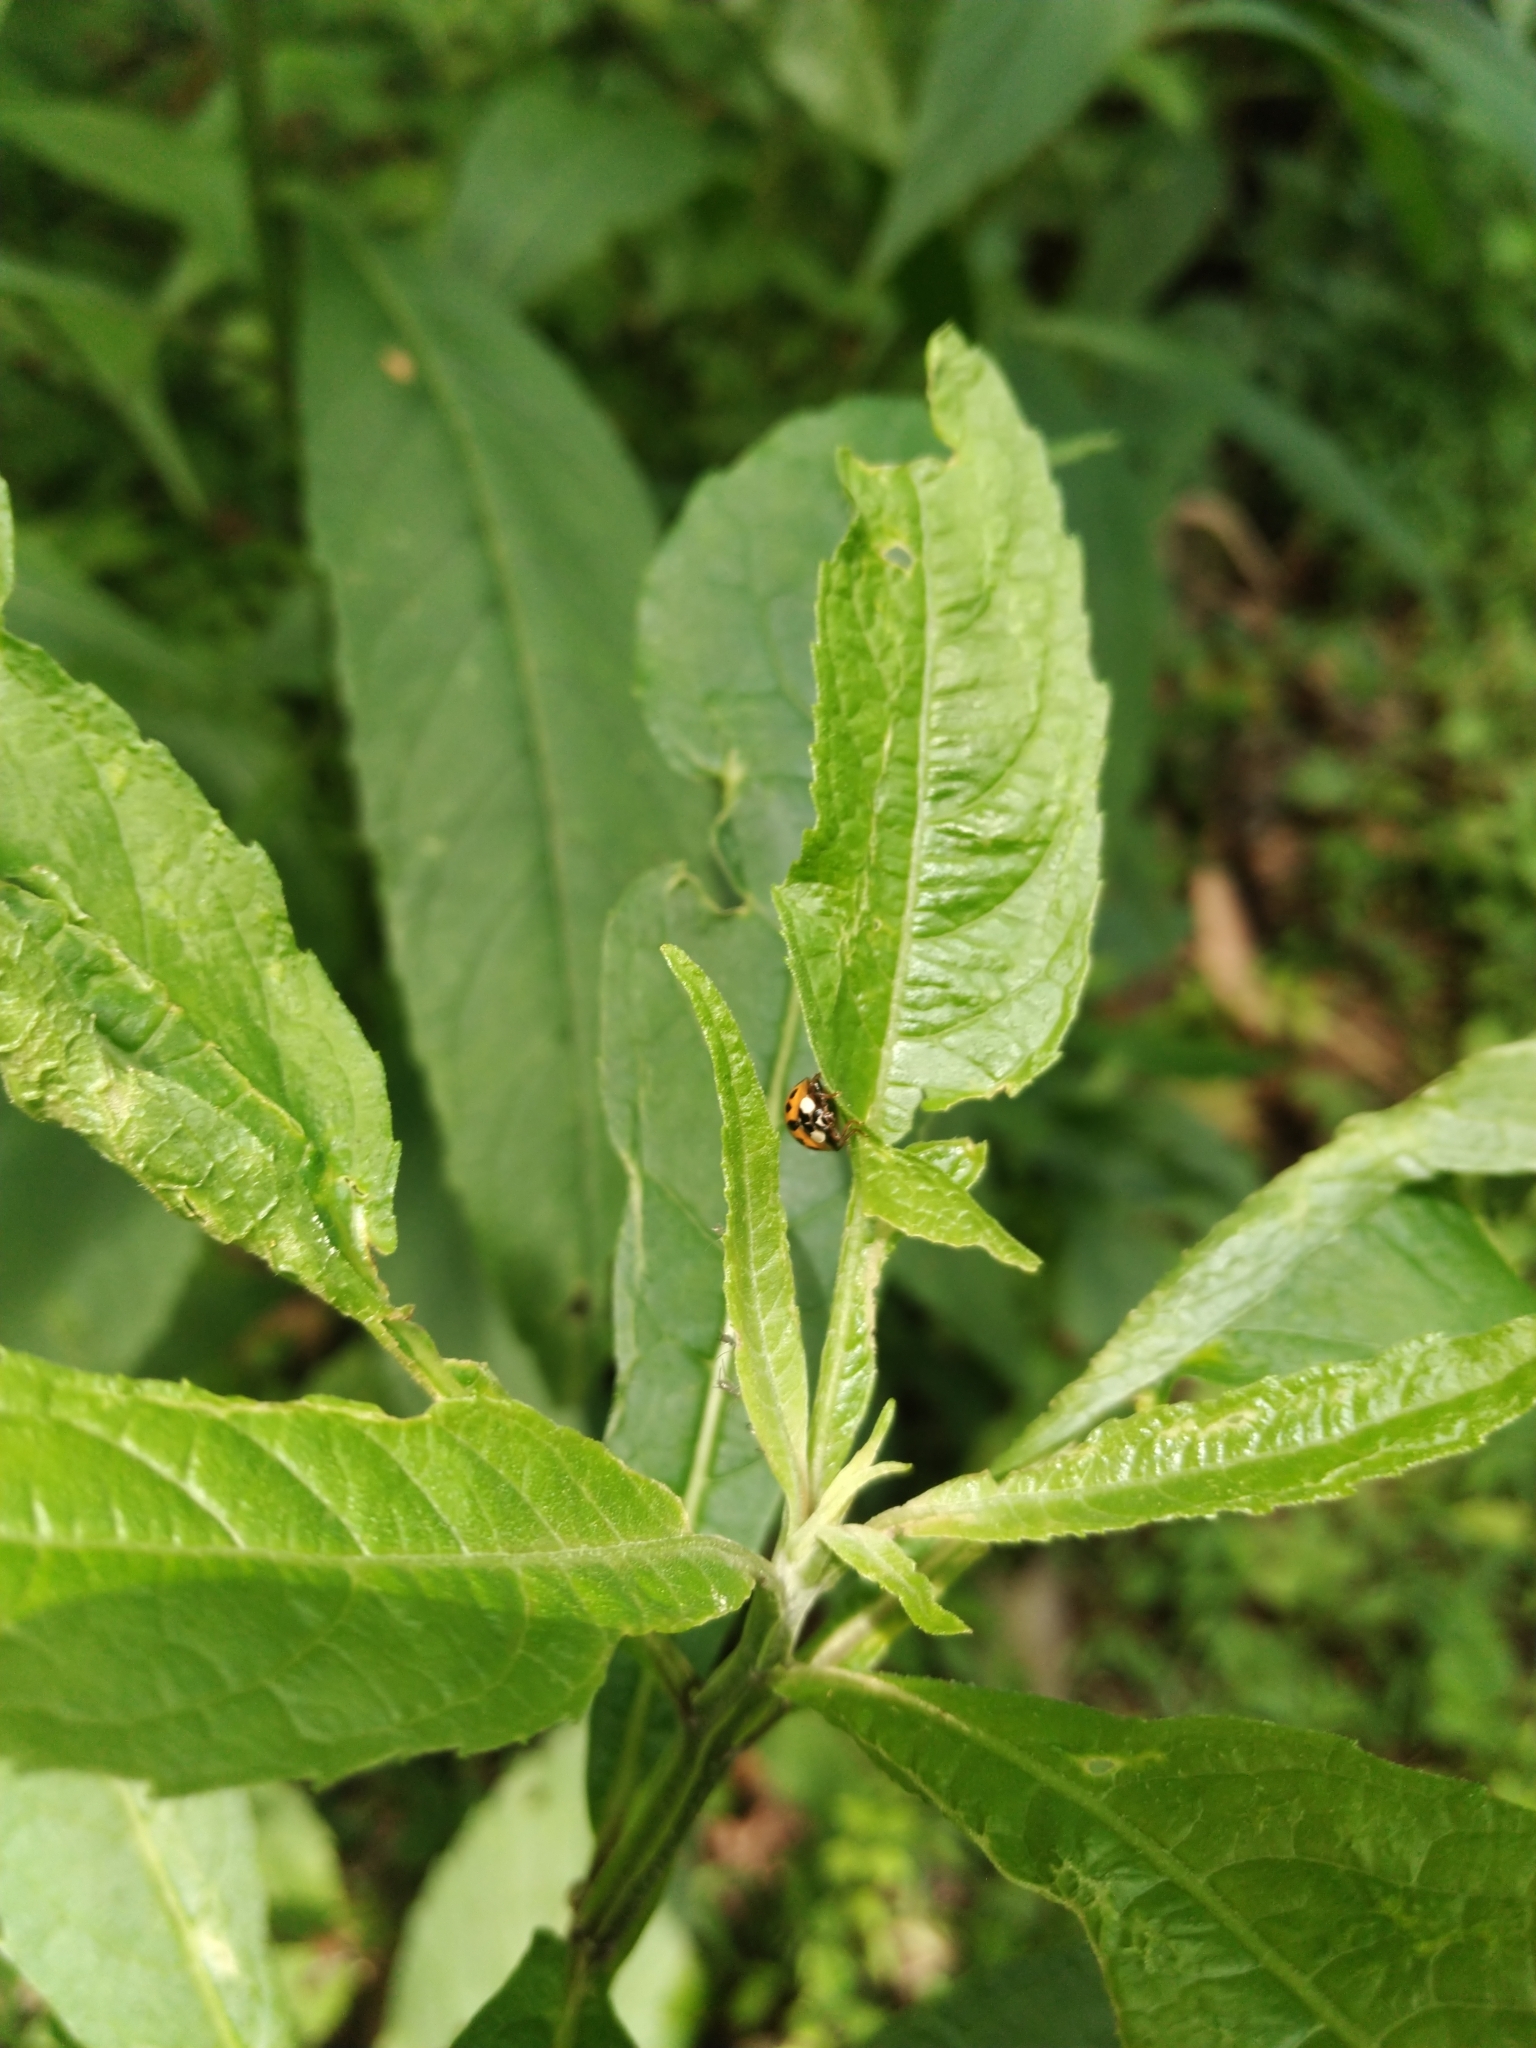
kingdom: Animalia
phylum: Arthropoda
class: Insecta
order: Coleoptera
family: Coccinellidae
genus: Harmonia
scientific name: Harmonia axyridis
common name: Harlequin ladybird
